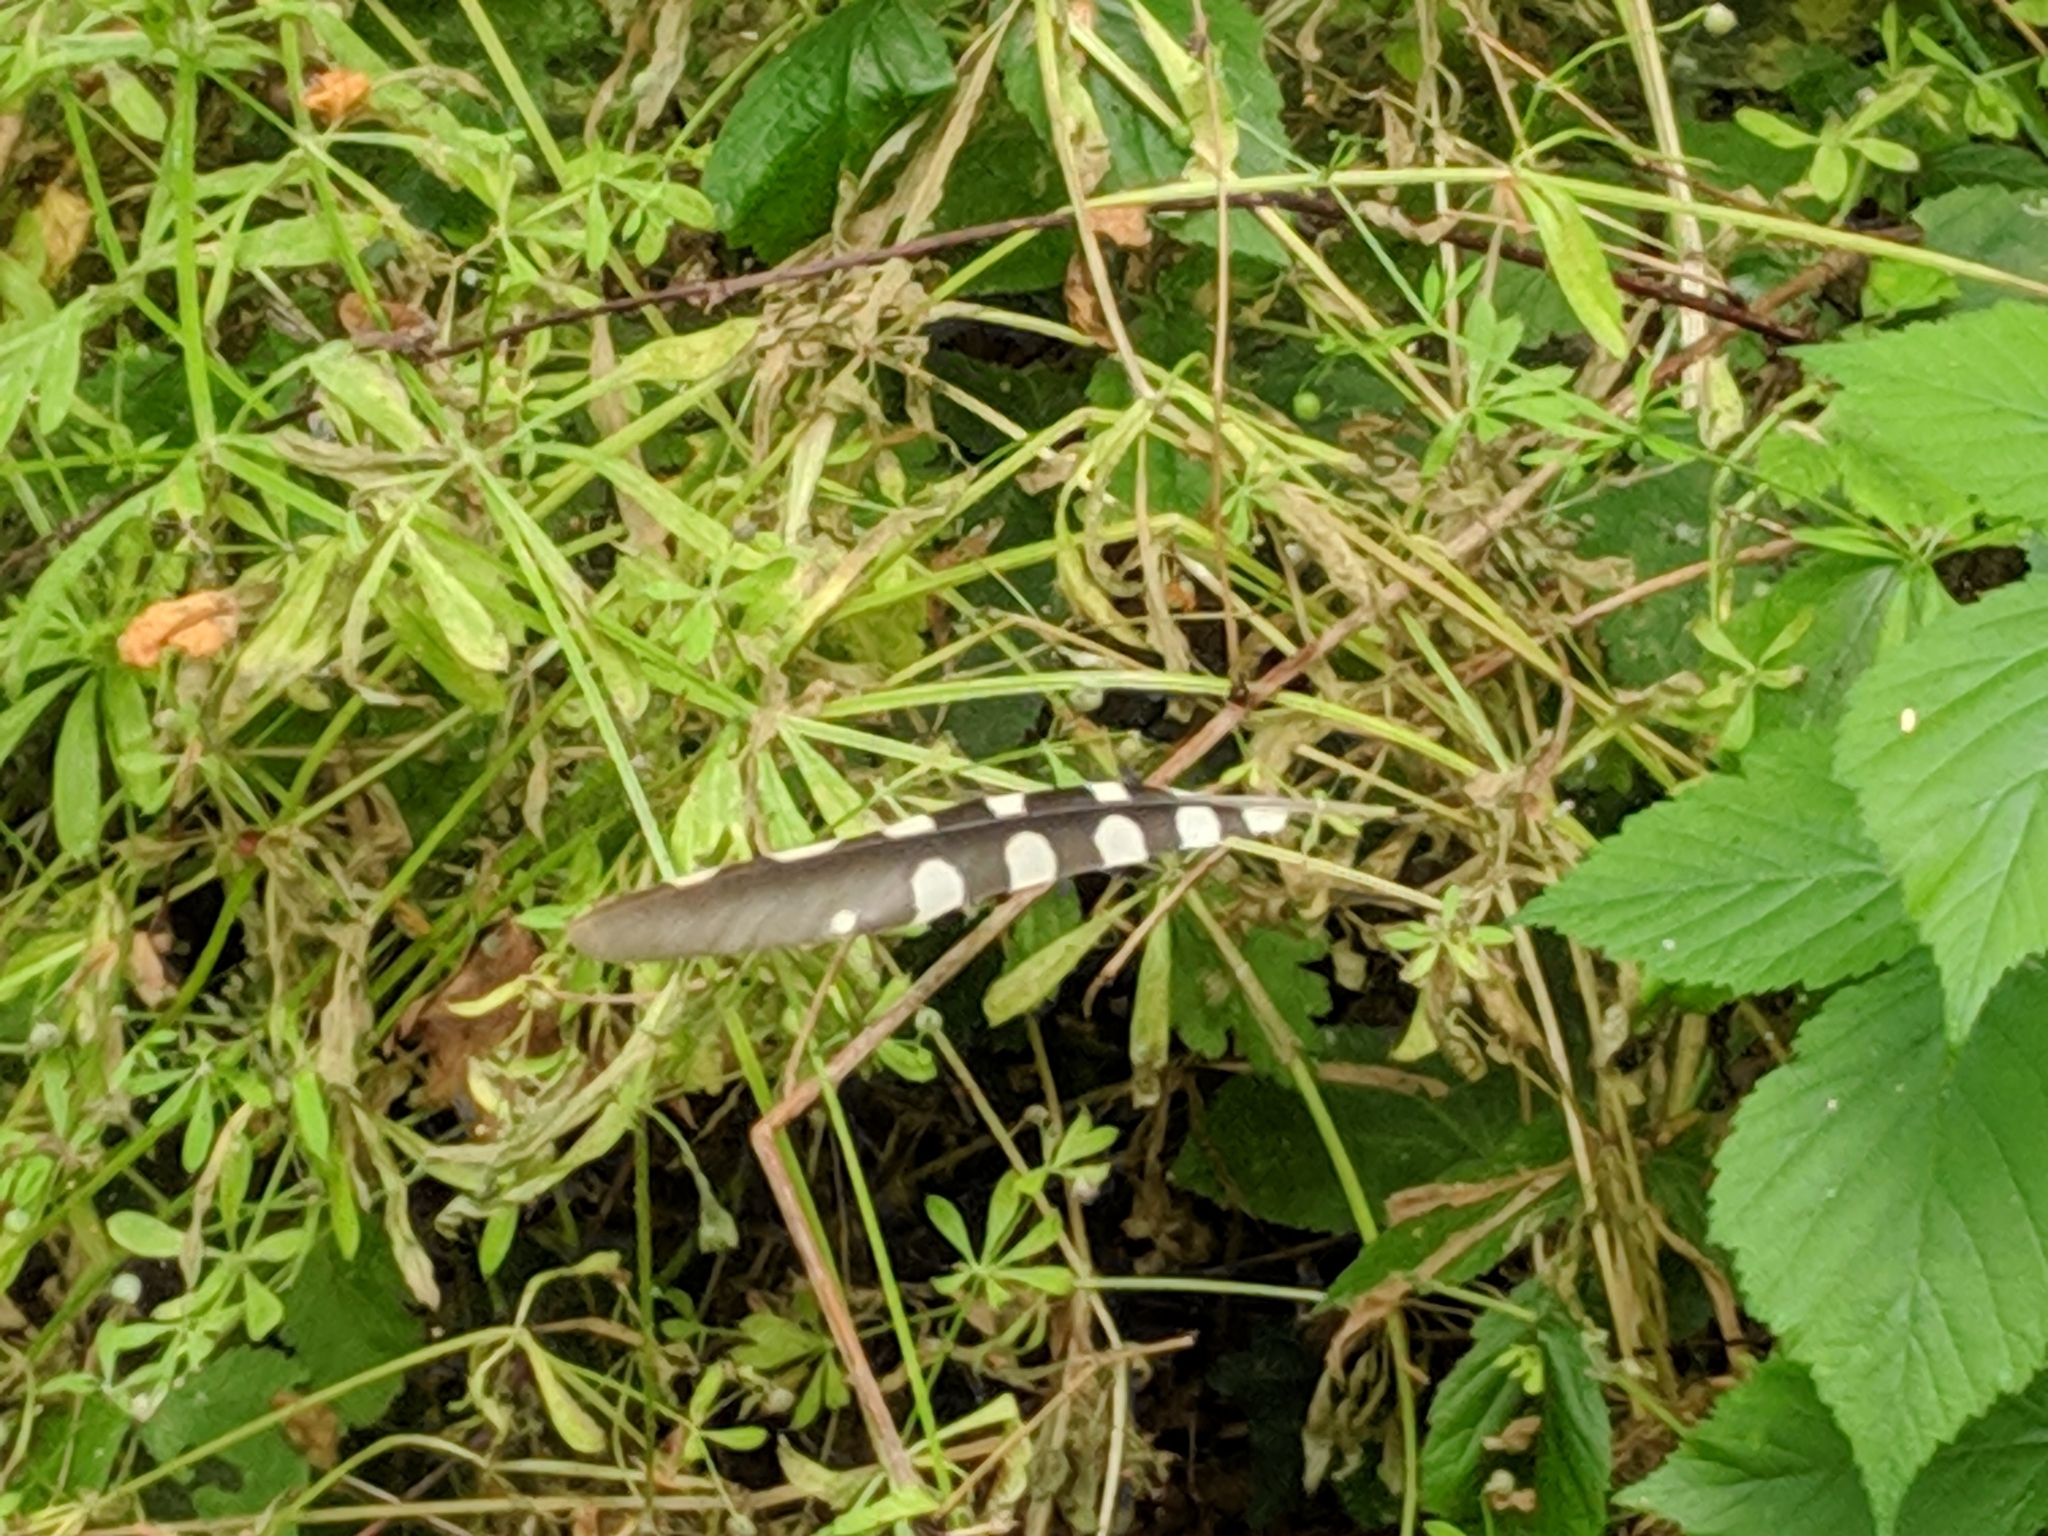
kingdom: Animalia
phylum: Chordata
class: Aves
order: Piciformes
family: Picidae
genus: Dendrocopos
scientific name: Dendrocopos major
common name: Great spotted woodpecker
